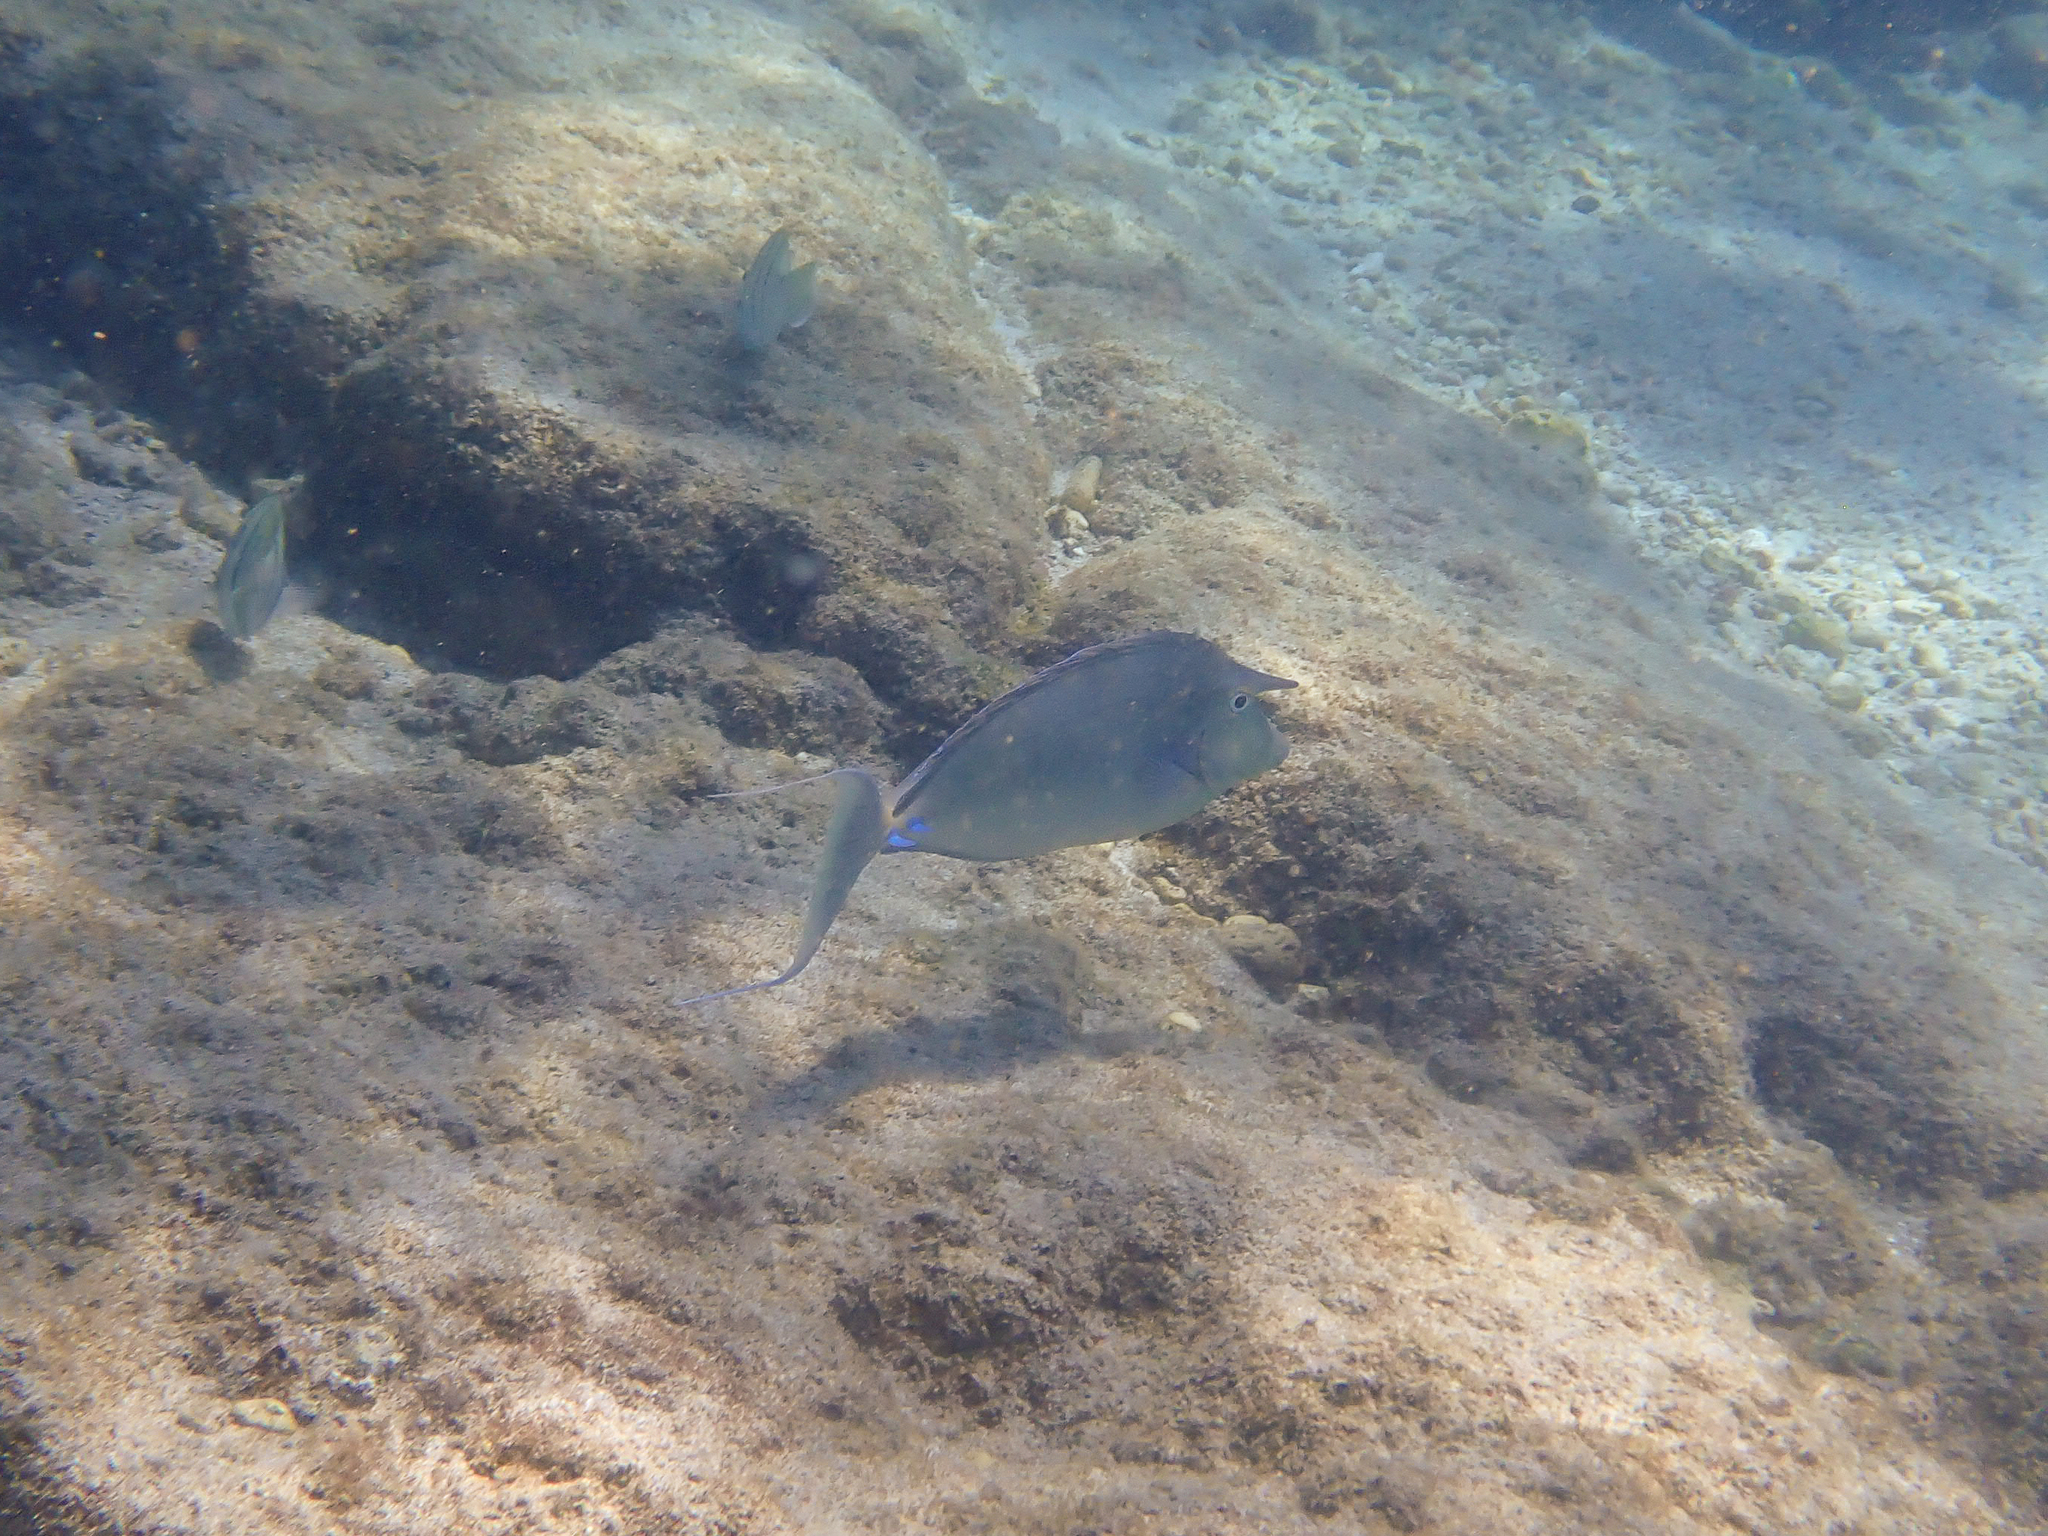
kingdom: Animalia
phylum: Chordata
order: Perciformes
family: Acanthuridae
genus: Naso
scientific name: Naso unicornis
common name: Bluespine unicornfish
